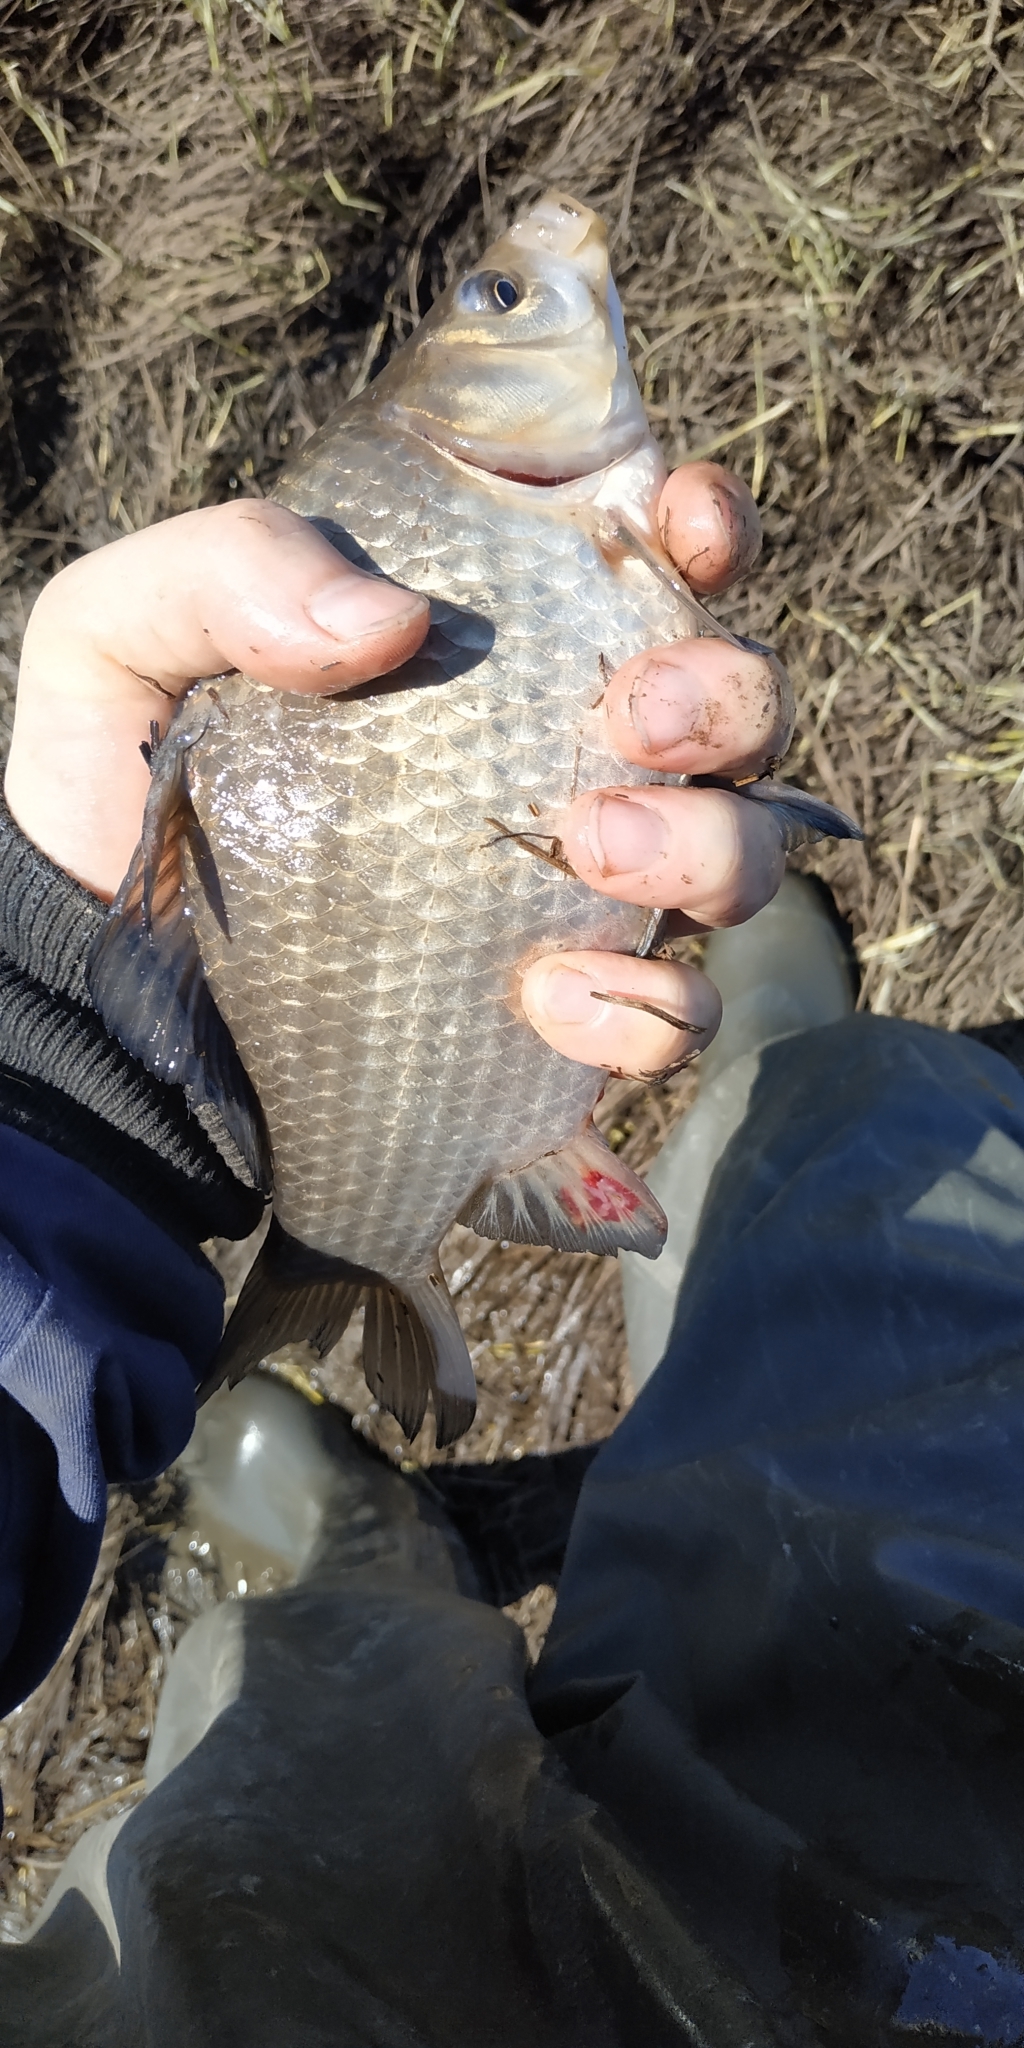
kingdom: Animalia
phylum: Chordata
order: Cypriniformes
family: Cyprinidae
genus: Carassius
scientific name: Carassius gibelio
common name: Prussian carp
